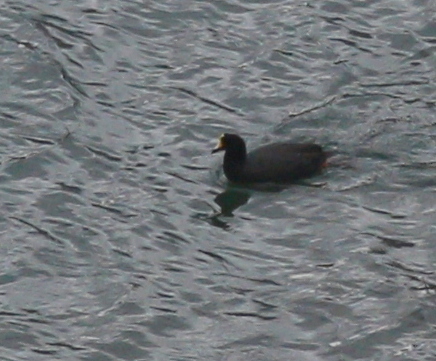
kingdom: Animalia
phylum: Chordata
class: Aves
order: Gruiformes
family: Rallidae
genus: Fulica
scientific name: Fulica gigantea
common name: Giant coot
